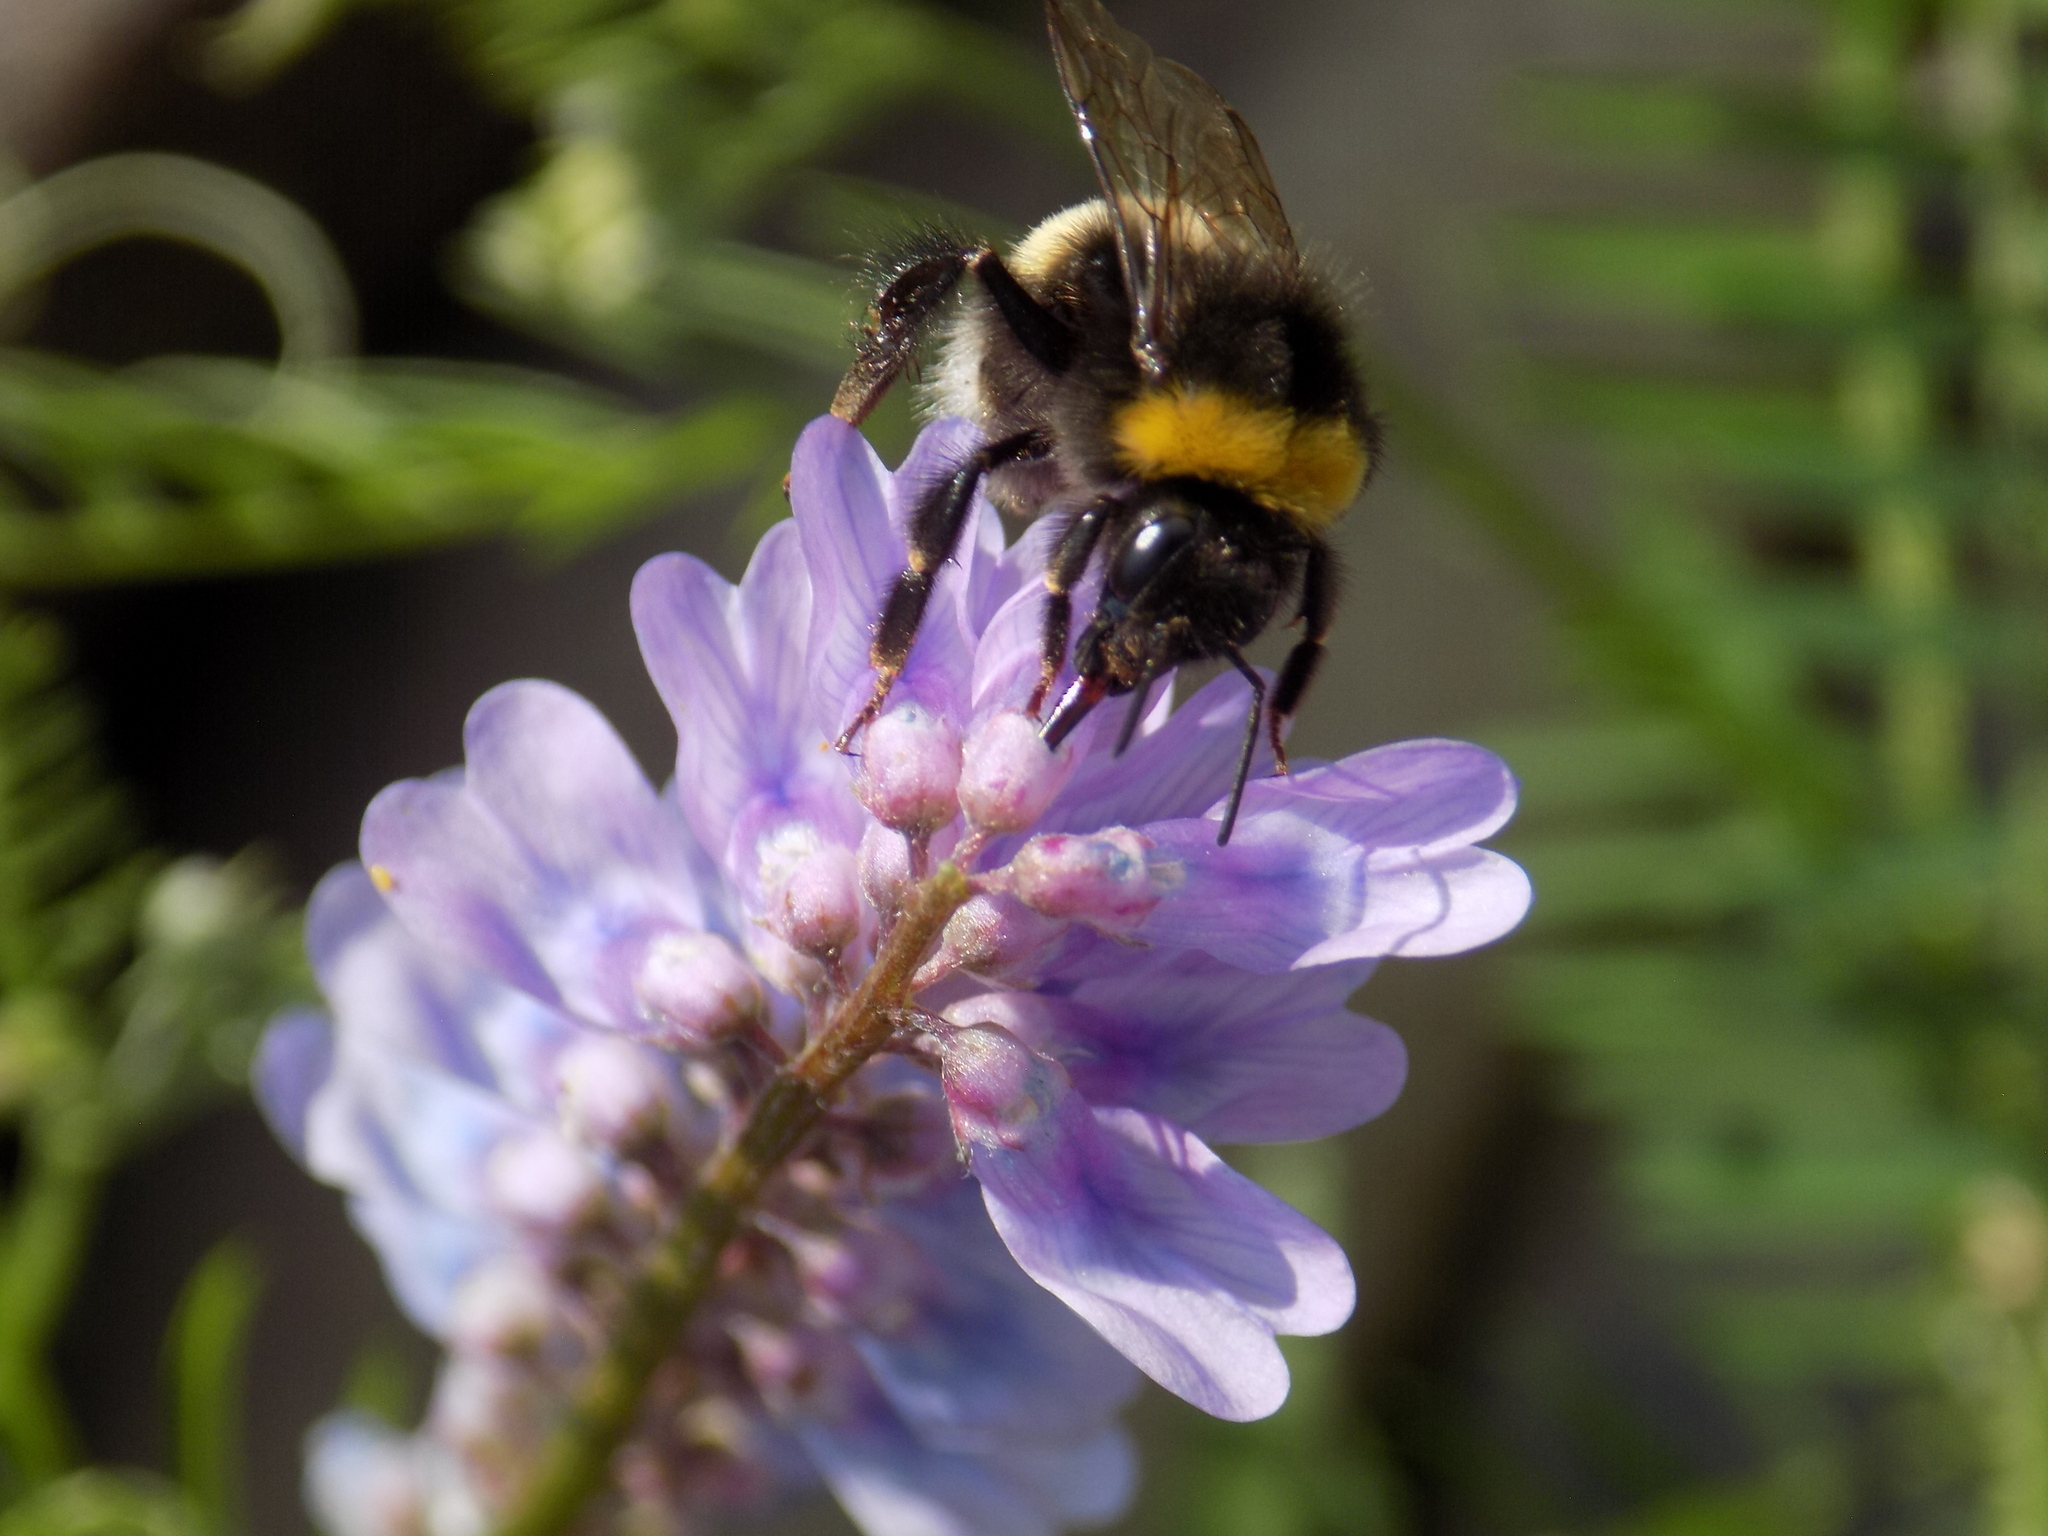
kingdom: Animalia
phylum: Arthropoda
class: Insecta
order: Hymenoptera
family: Apidae
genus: Bombus
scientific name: Bombus
